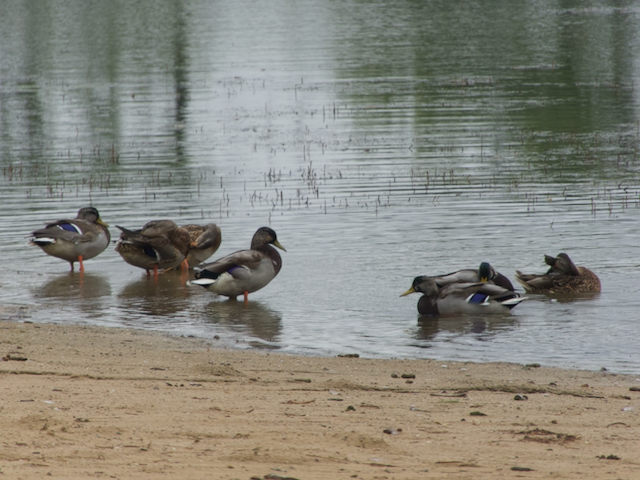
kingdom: Animalia
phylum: Chordata
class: Aves
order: Anseriformes
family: Anatidae
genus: Anas
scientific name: Anas platyrhynchos
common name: Mallard
